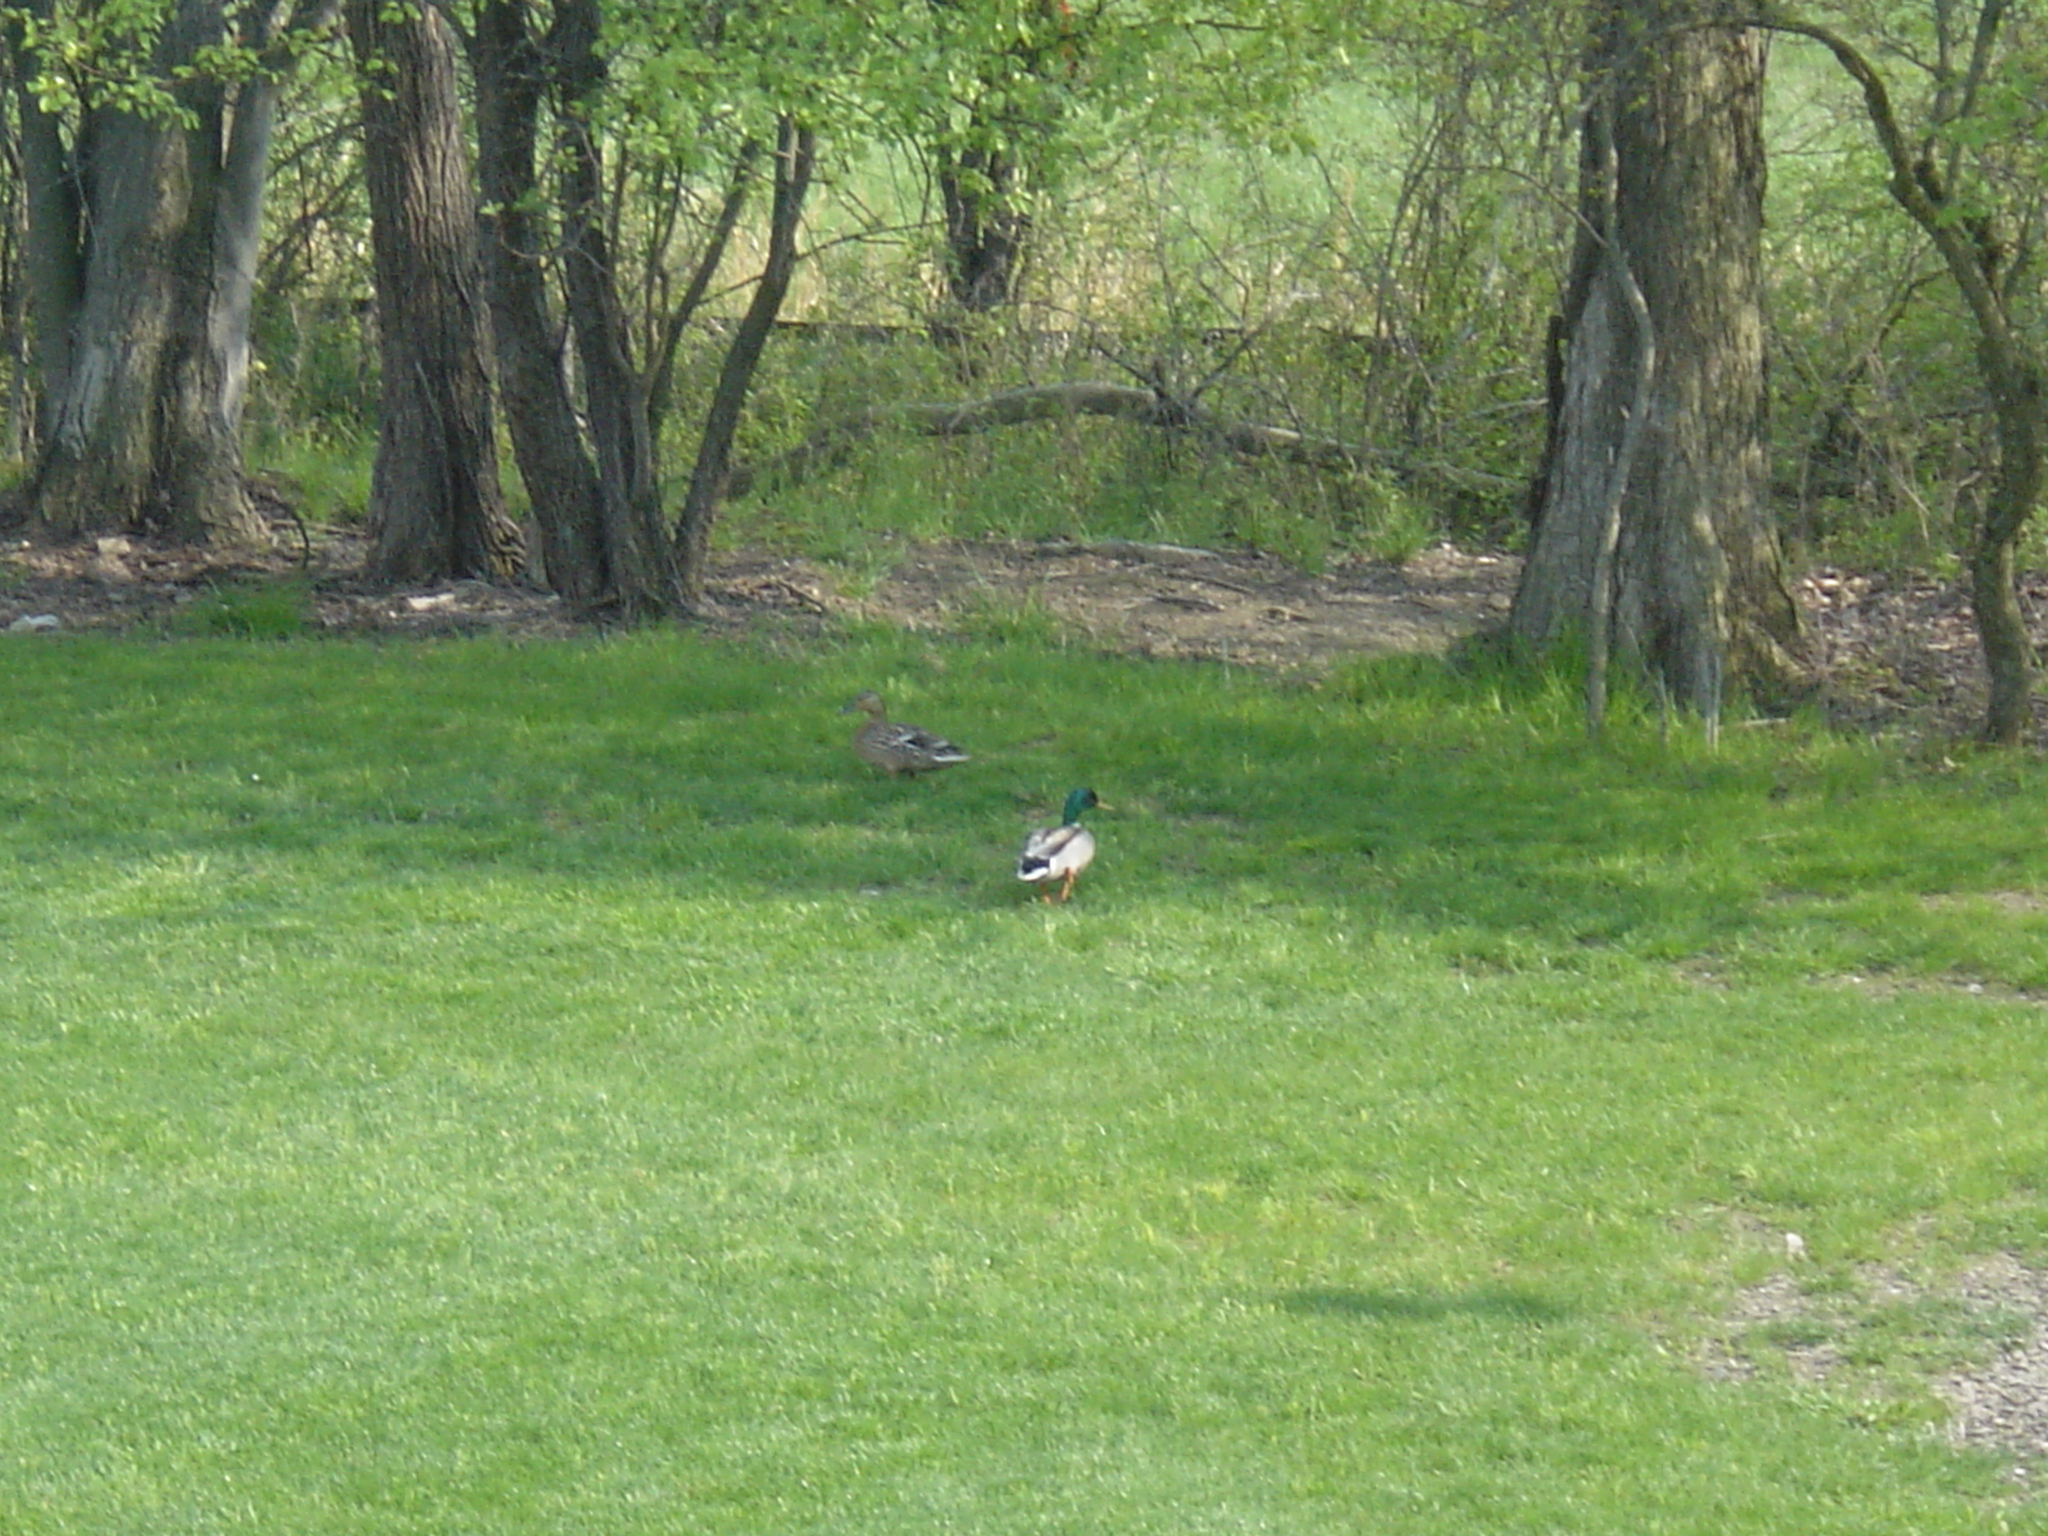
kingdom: Animalia
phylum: Chordata
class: Aves
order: Anseriformes
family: Anatidae
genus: Anas
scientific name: Anas platyrhynchos
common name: Mallard
